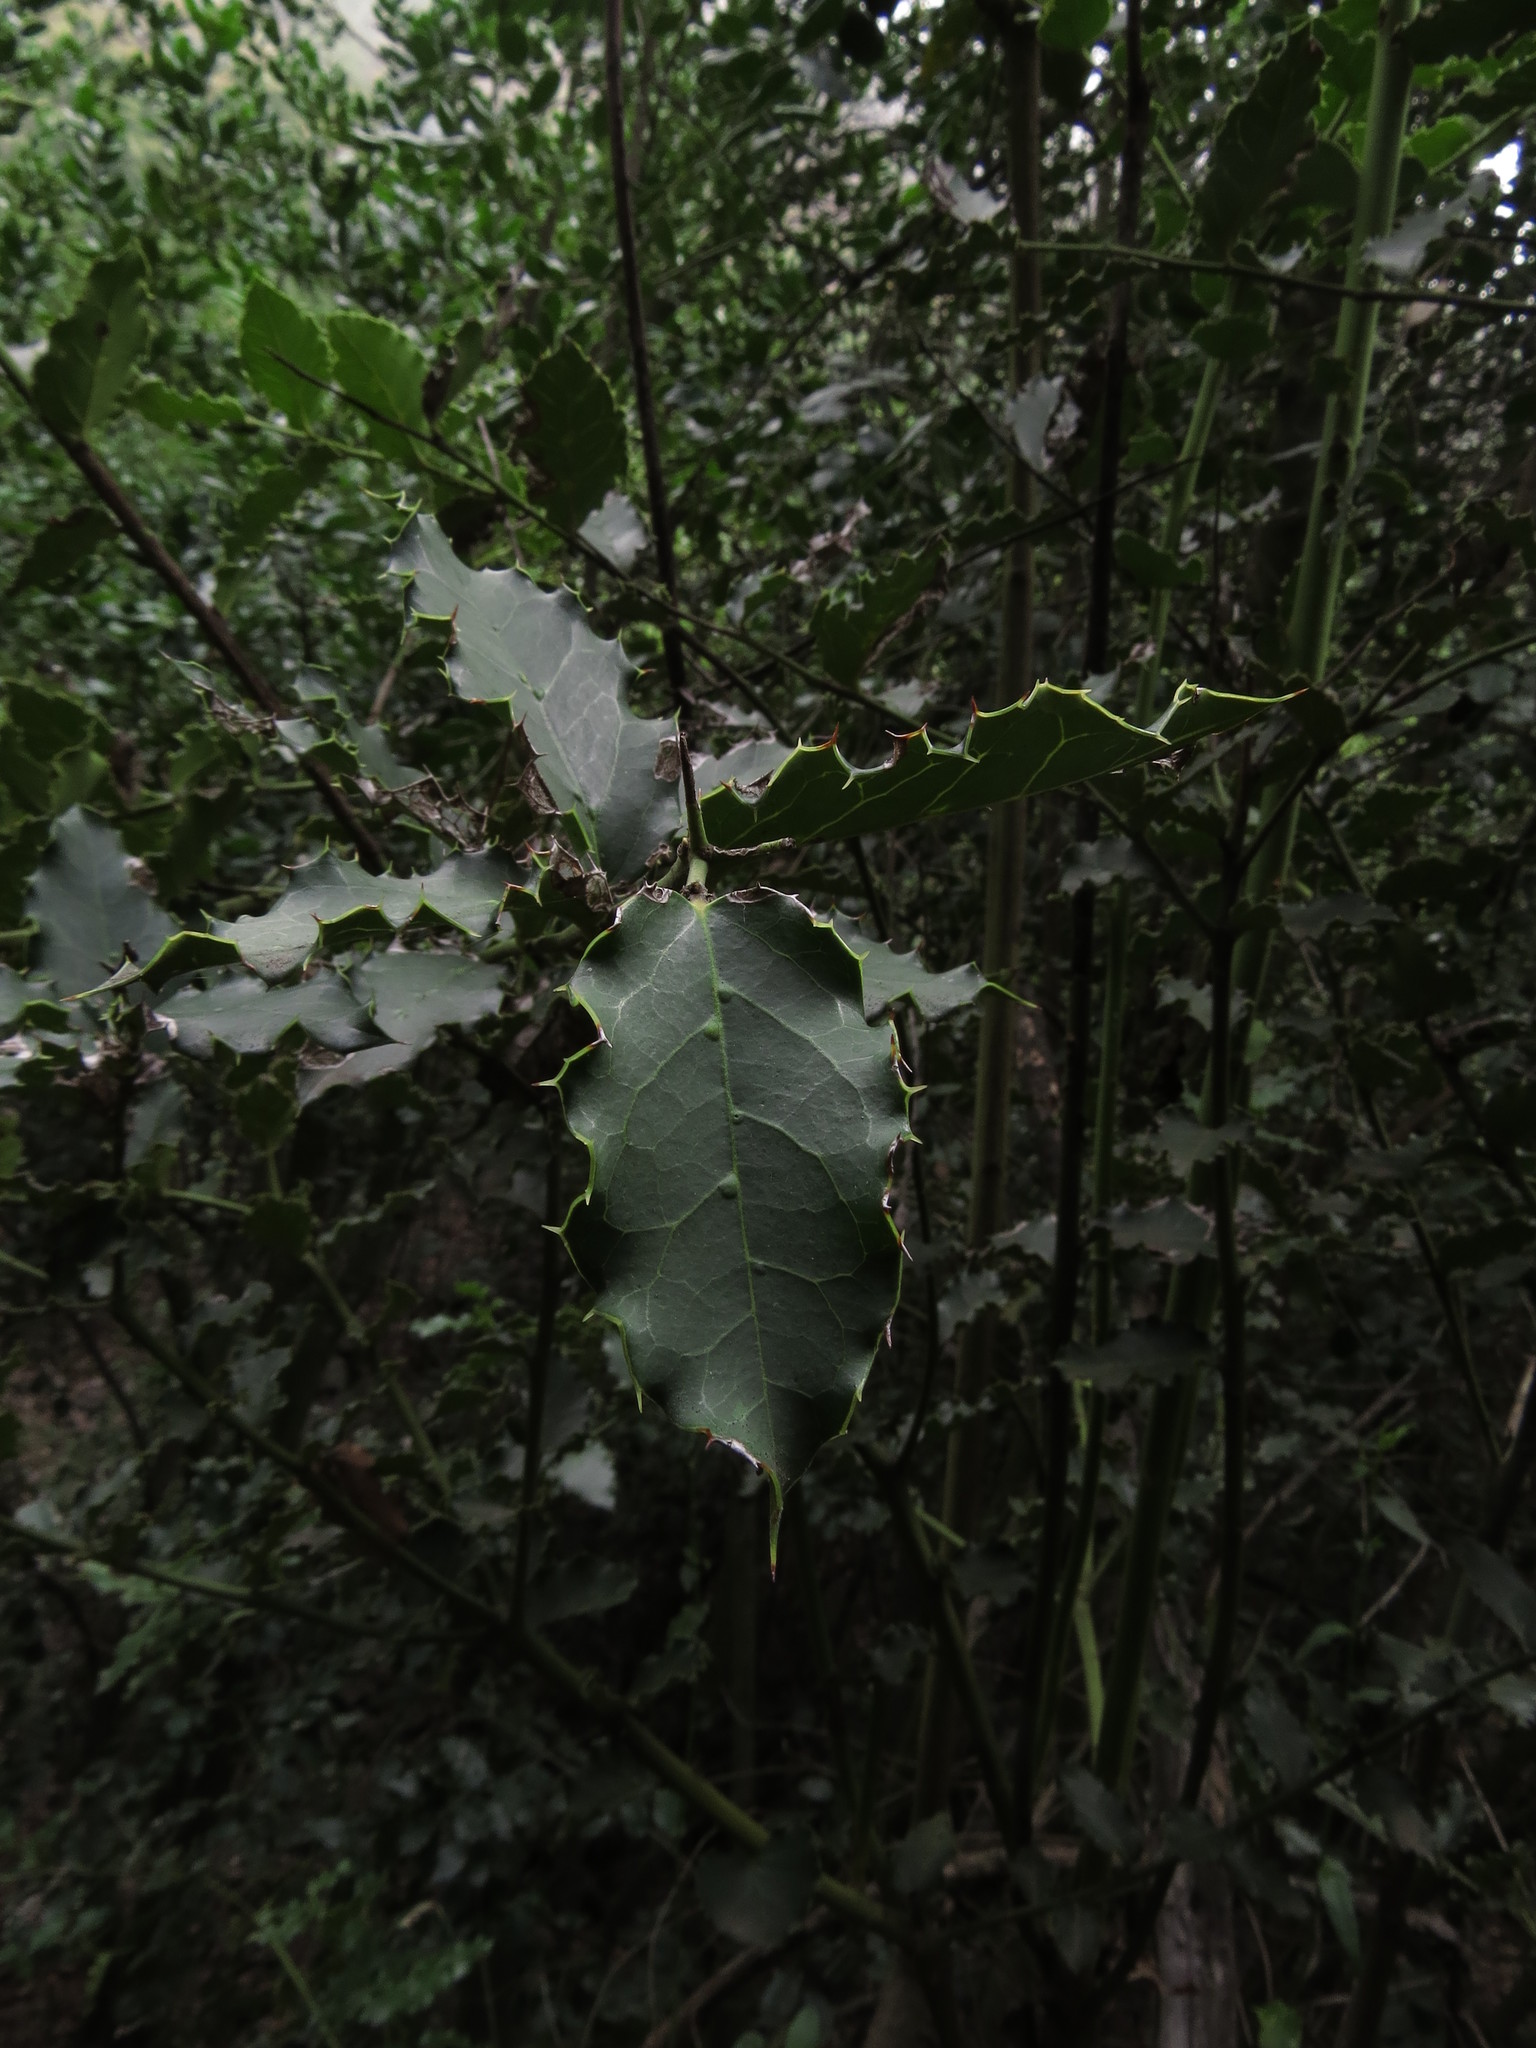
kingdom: Plantae
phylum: Tracheophyta
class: Magnoliopsida
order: Cardiopteridales
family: Cardiopteridaceae
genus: Citronella
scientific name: Citronella mucronata
